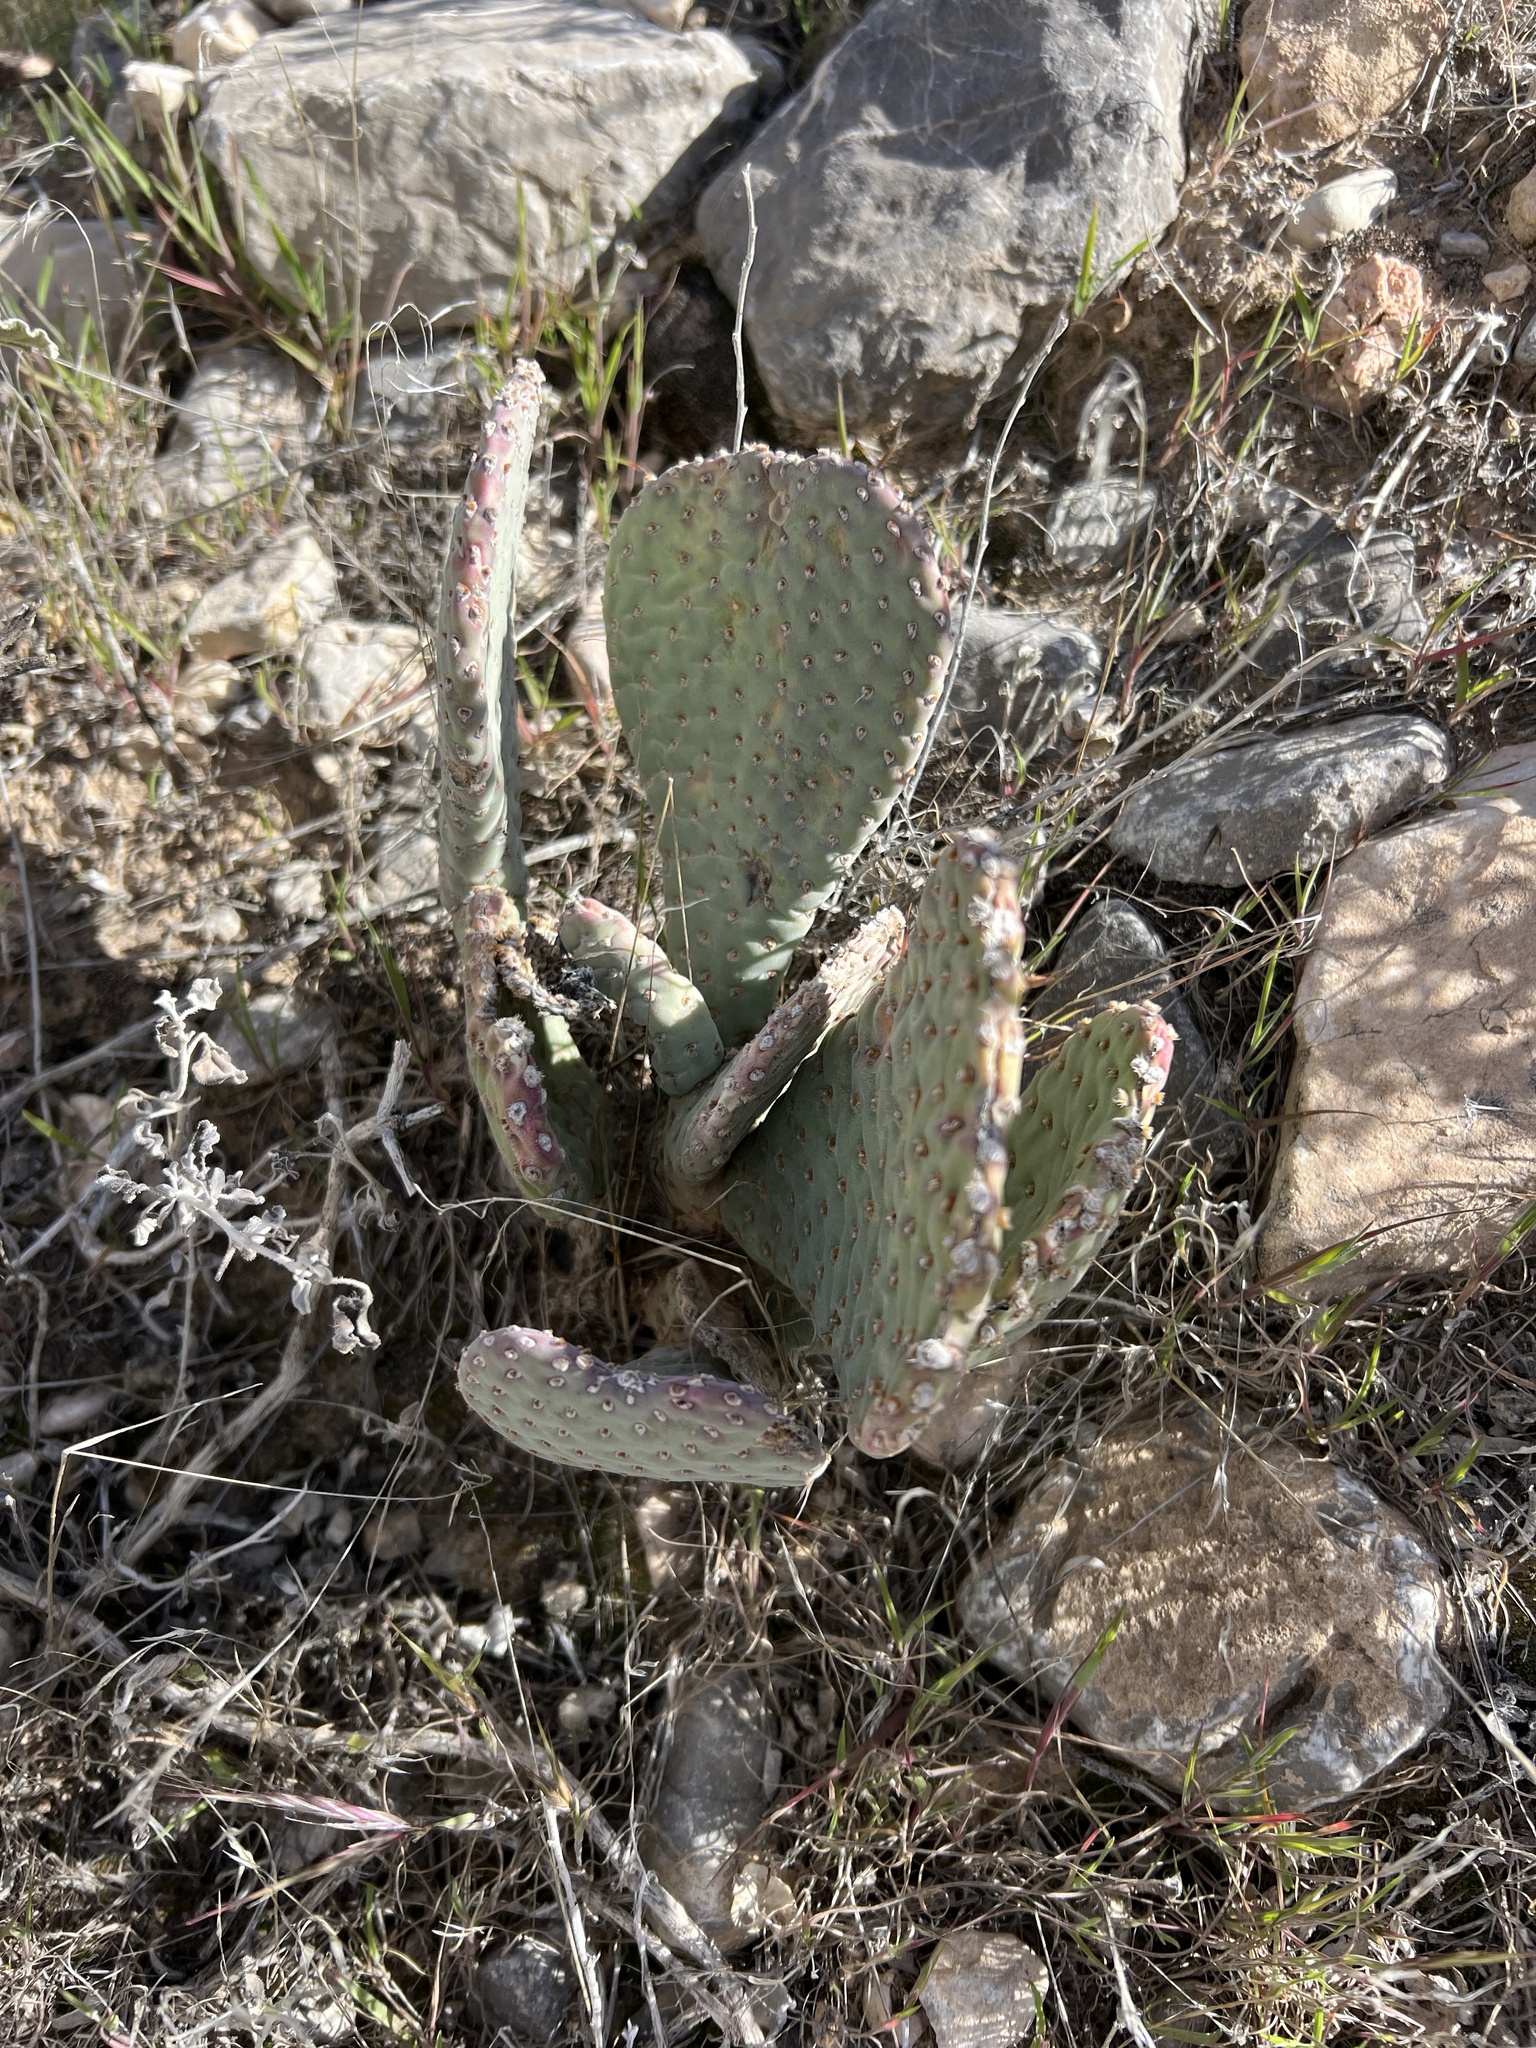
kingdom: Plantae
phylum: Tracheophyta
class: Magnoliopsida
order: Caryophyllales
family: Cactaceae
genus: Opuntia
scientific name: Opuntia basilaris
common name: Beavertail prickly-pear
